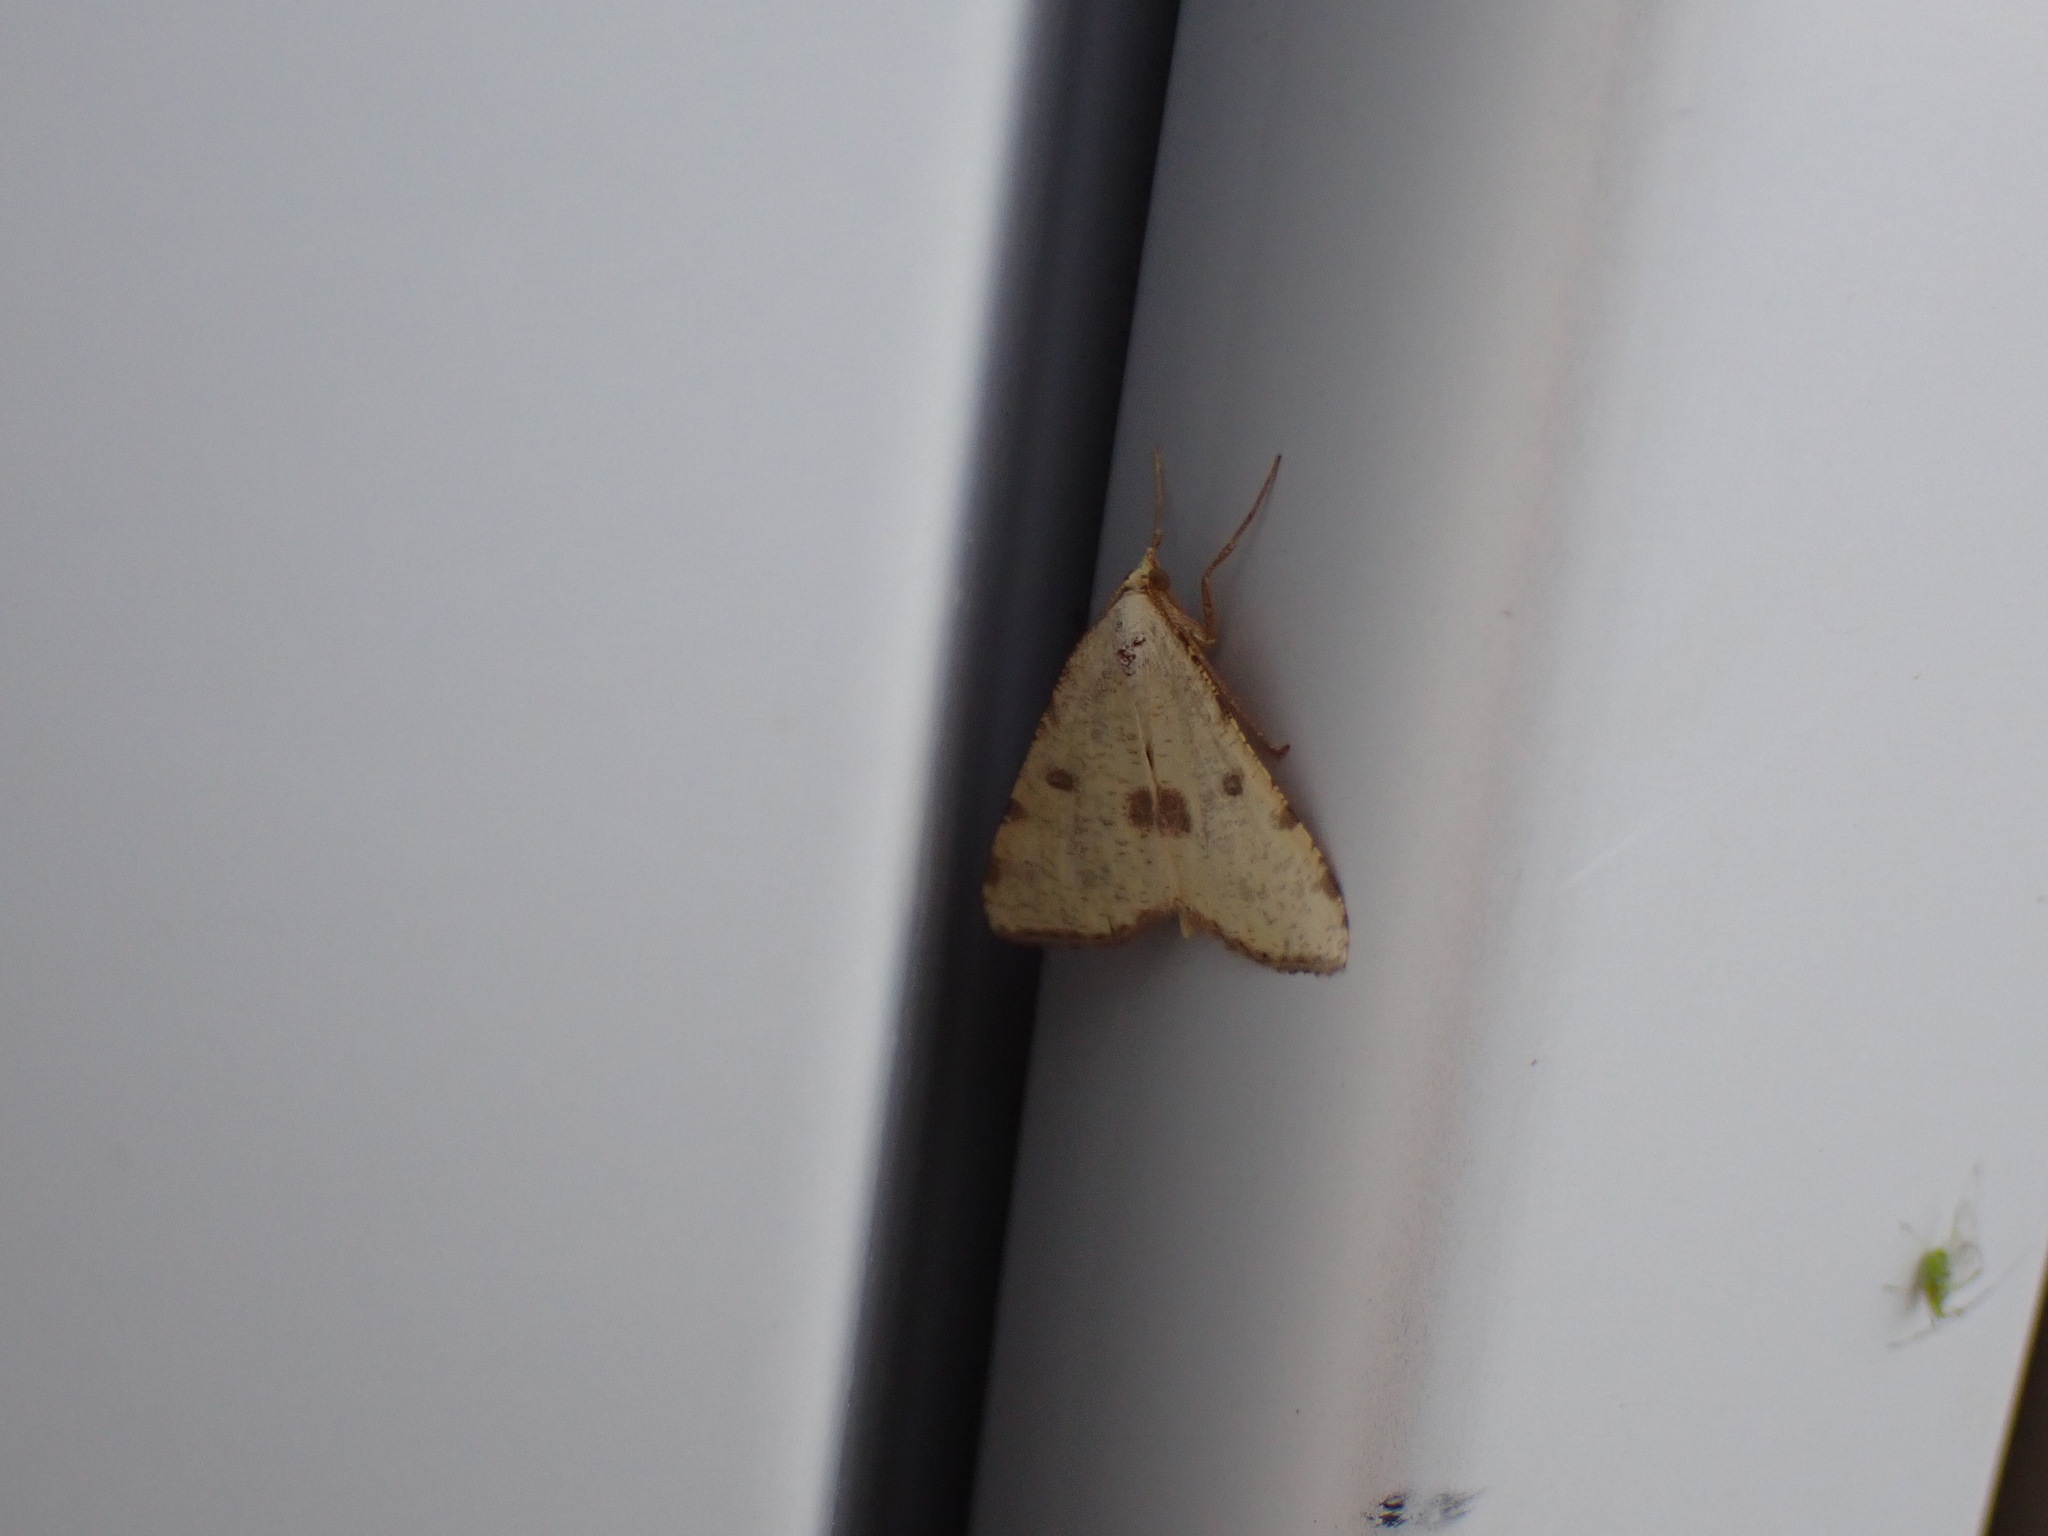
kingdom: Animalia
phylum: Arthropoda
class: Insecta
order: Lepidoptera
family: Geometridae
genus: Macaria
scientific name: Macaria amboflava
